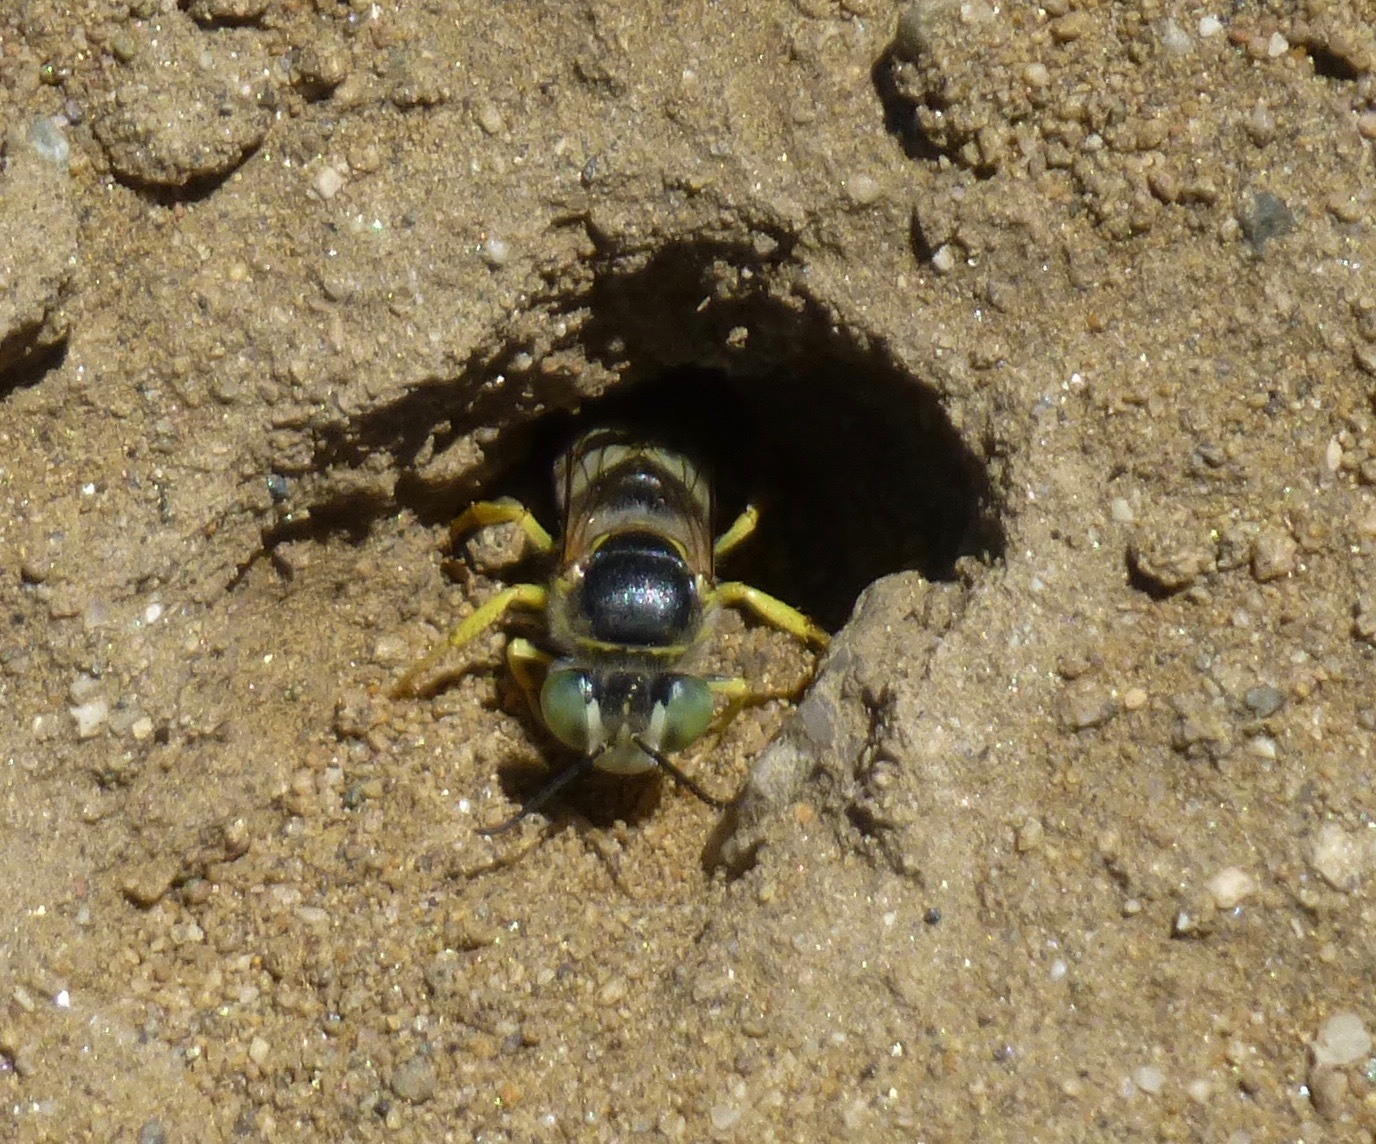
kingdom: Animalia
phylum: Arthropoda
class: Insecta
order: Hymenoptera
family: Crabronidae
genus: Bembix
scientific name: Bembix americana
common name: American sand wasp
